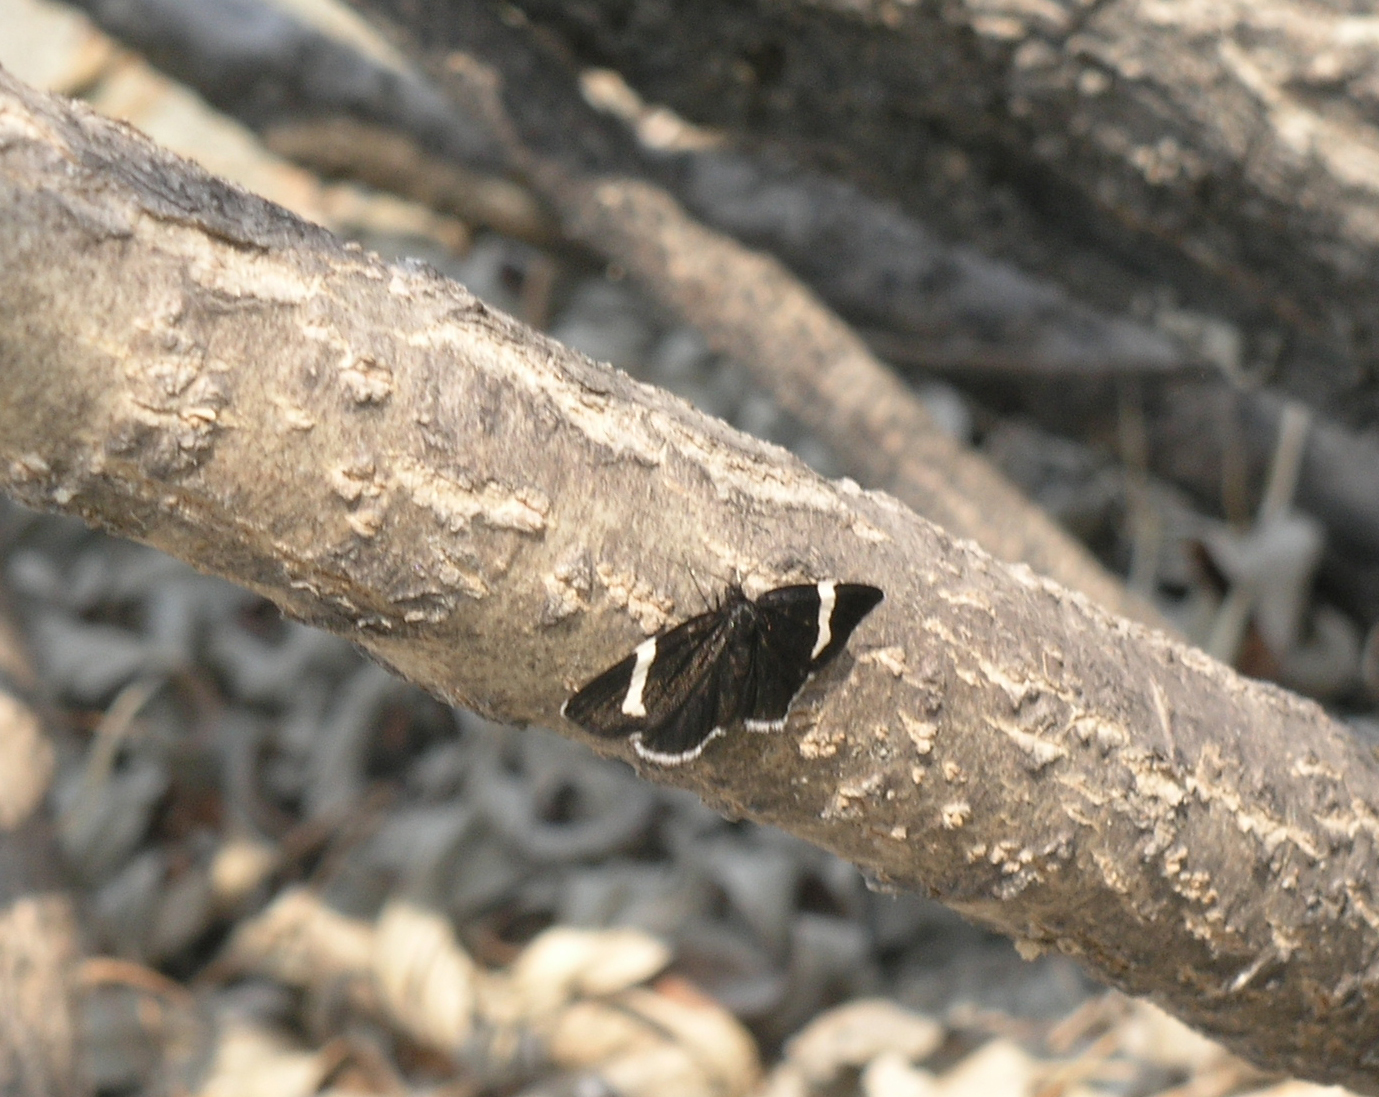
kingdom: Animalia
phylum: Arthropoda
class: Insecta
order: Lepidoptera
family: Geometridae
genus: Baptria
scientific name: Baptria tibiale
